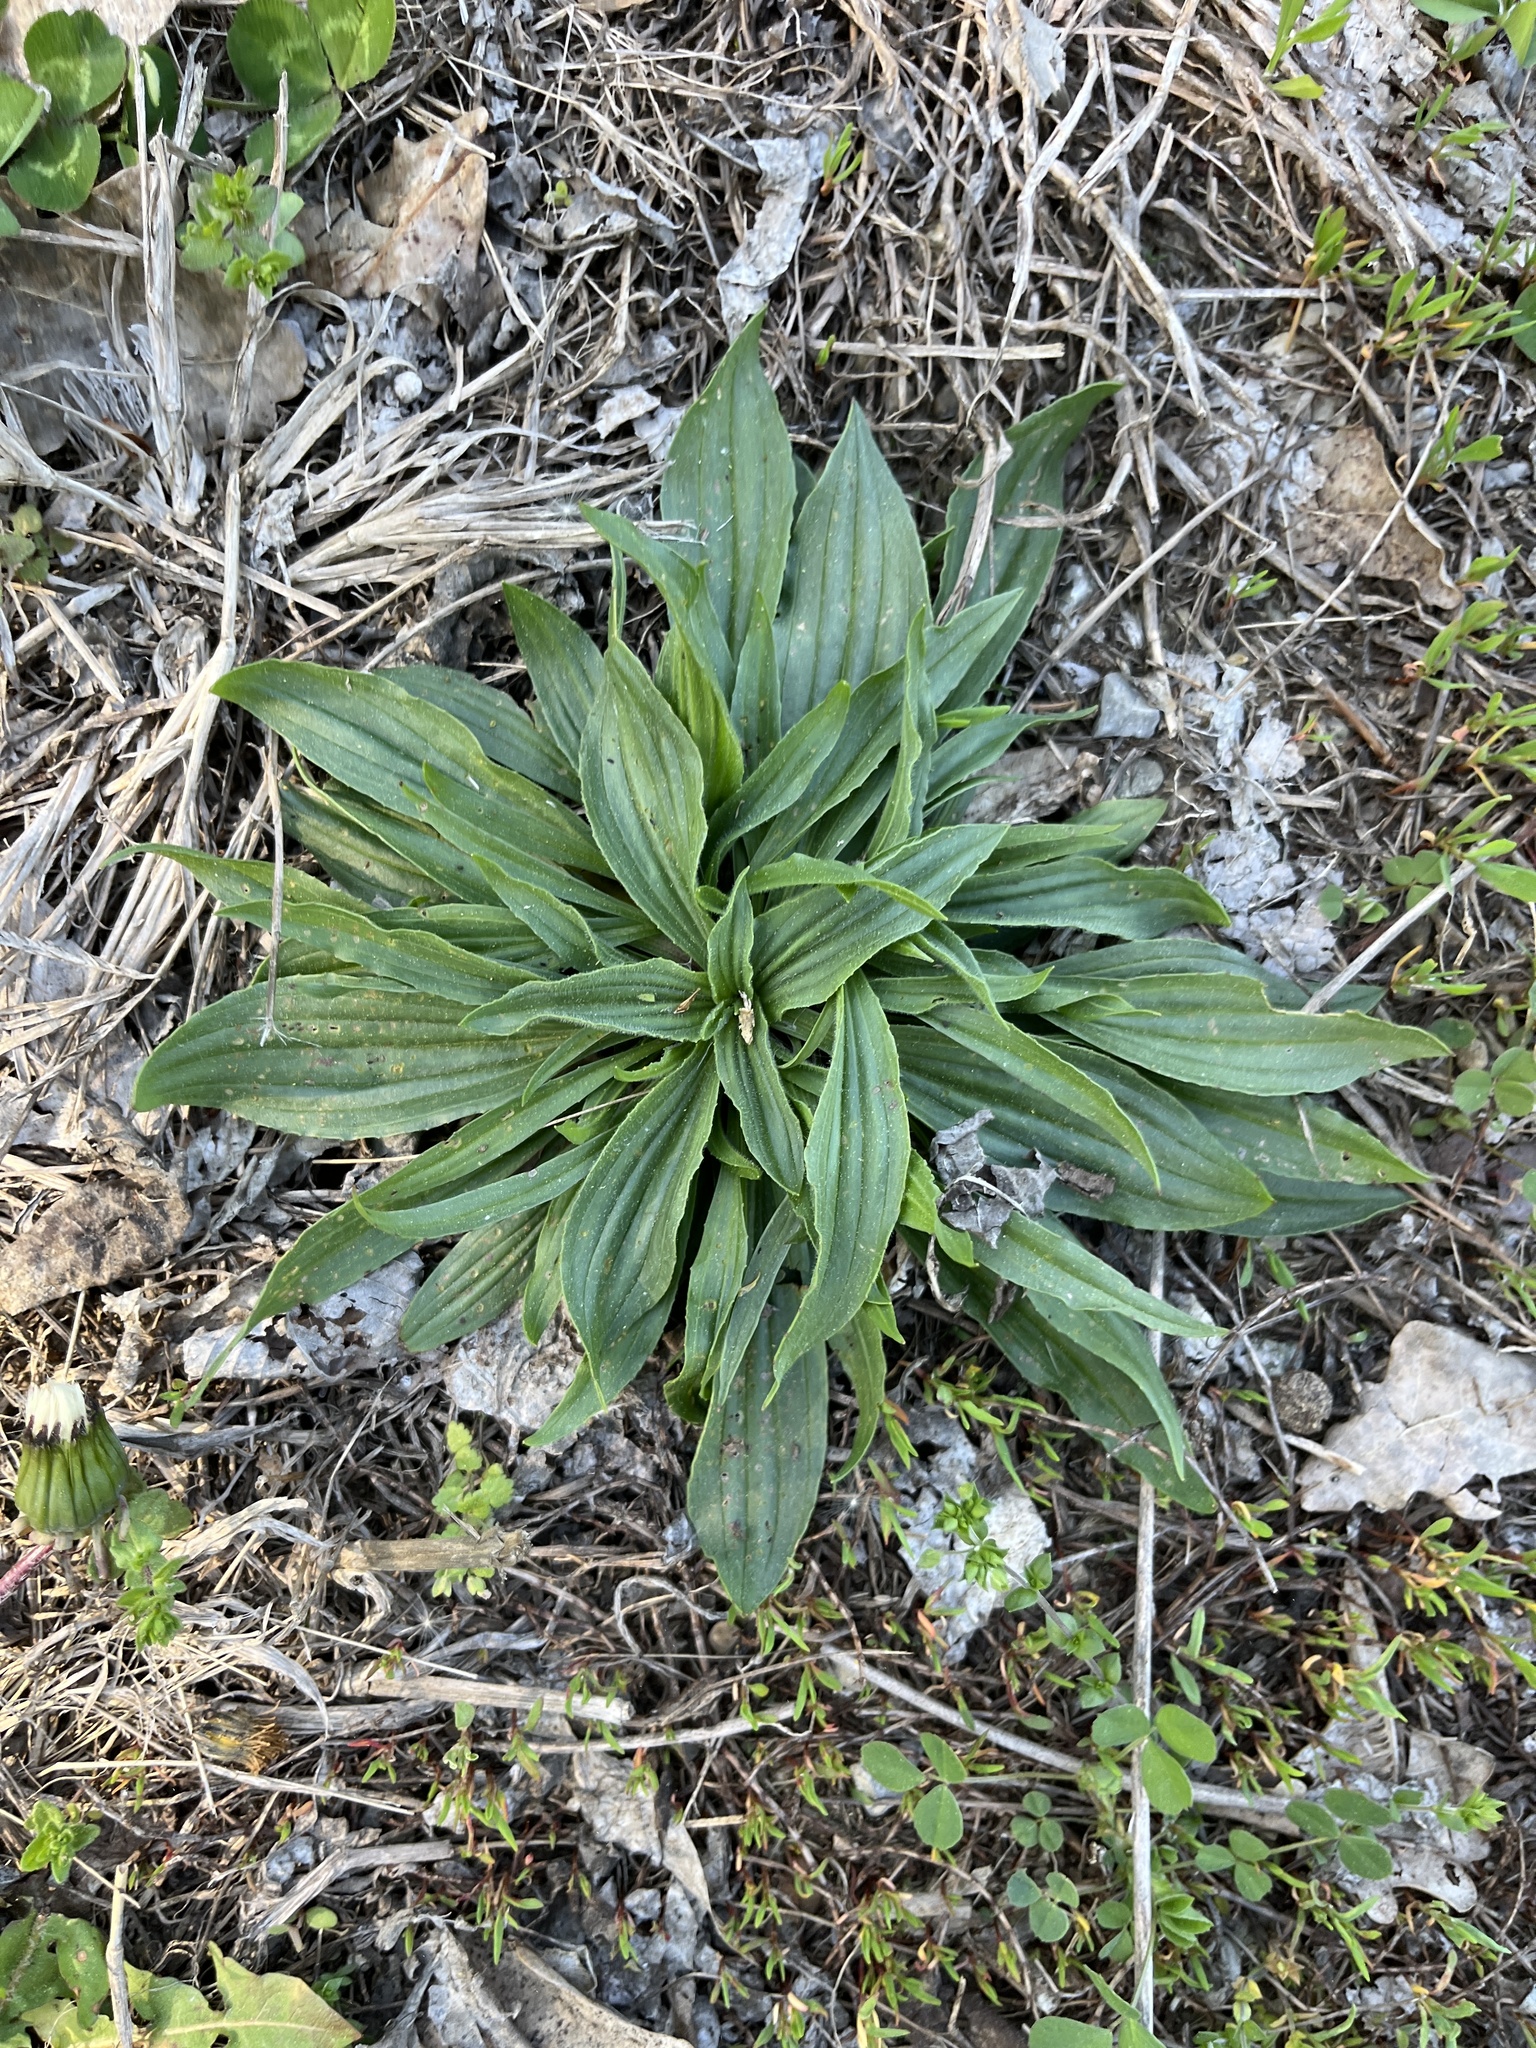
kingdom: Plantae
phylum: Tracheophyta
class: Magnoliopsida
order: Lamiales
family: Plantaginaceae
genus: Plantago
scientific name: Plantago lanceolata
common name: Ribwort plantain
